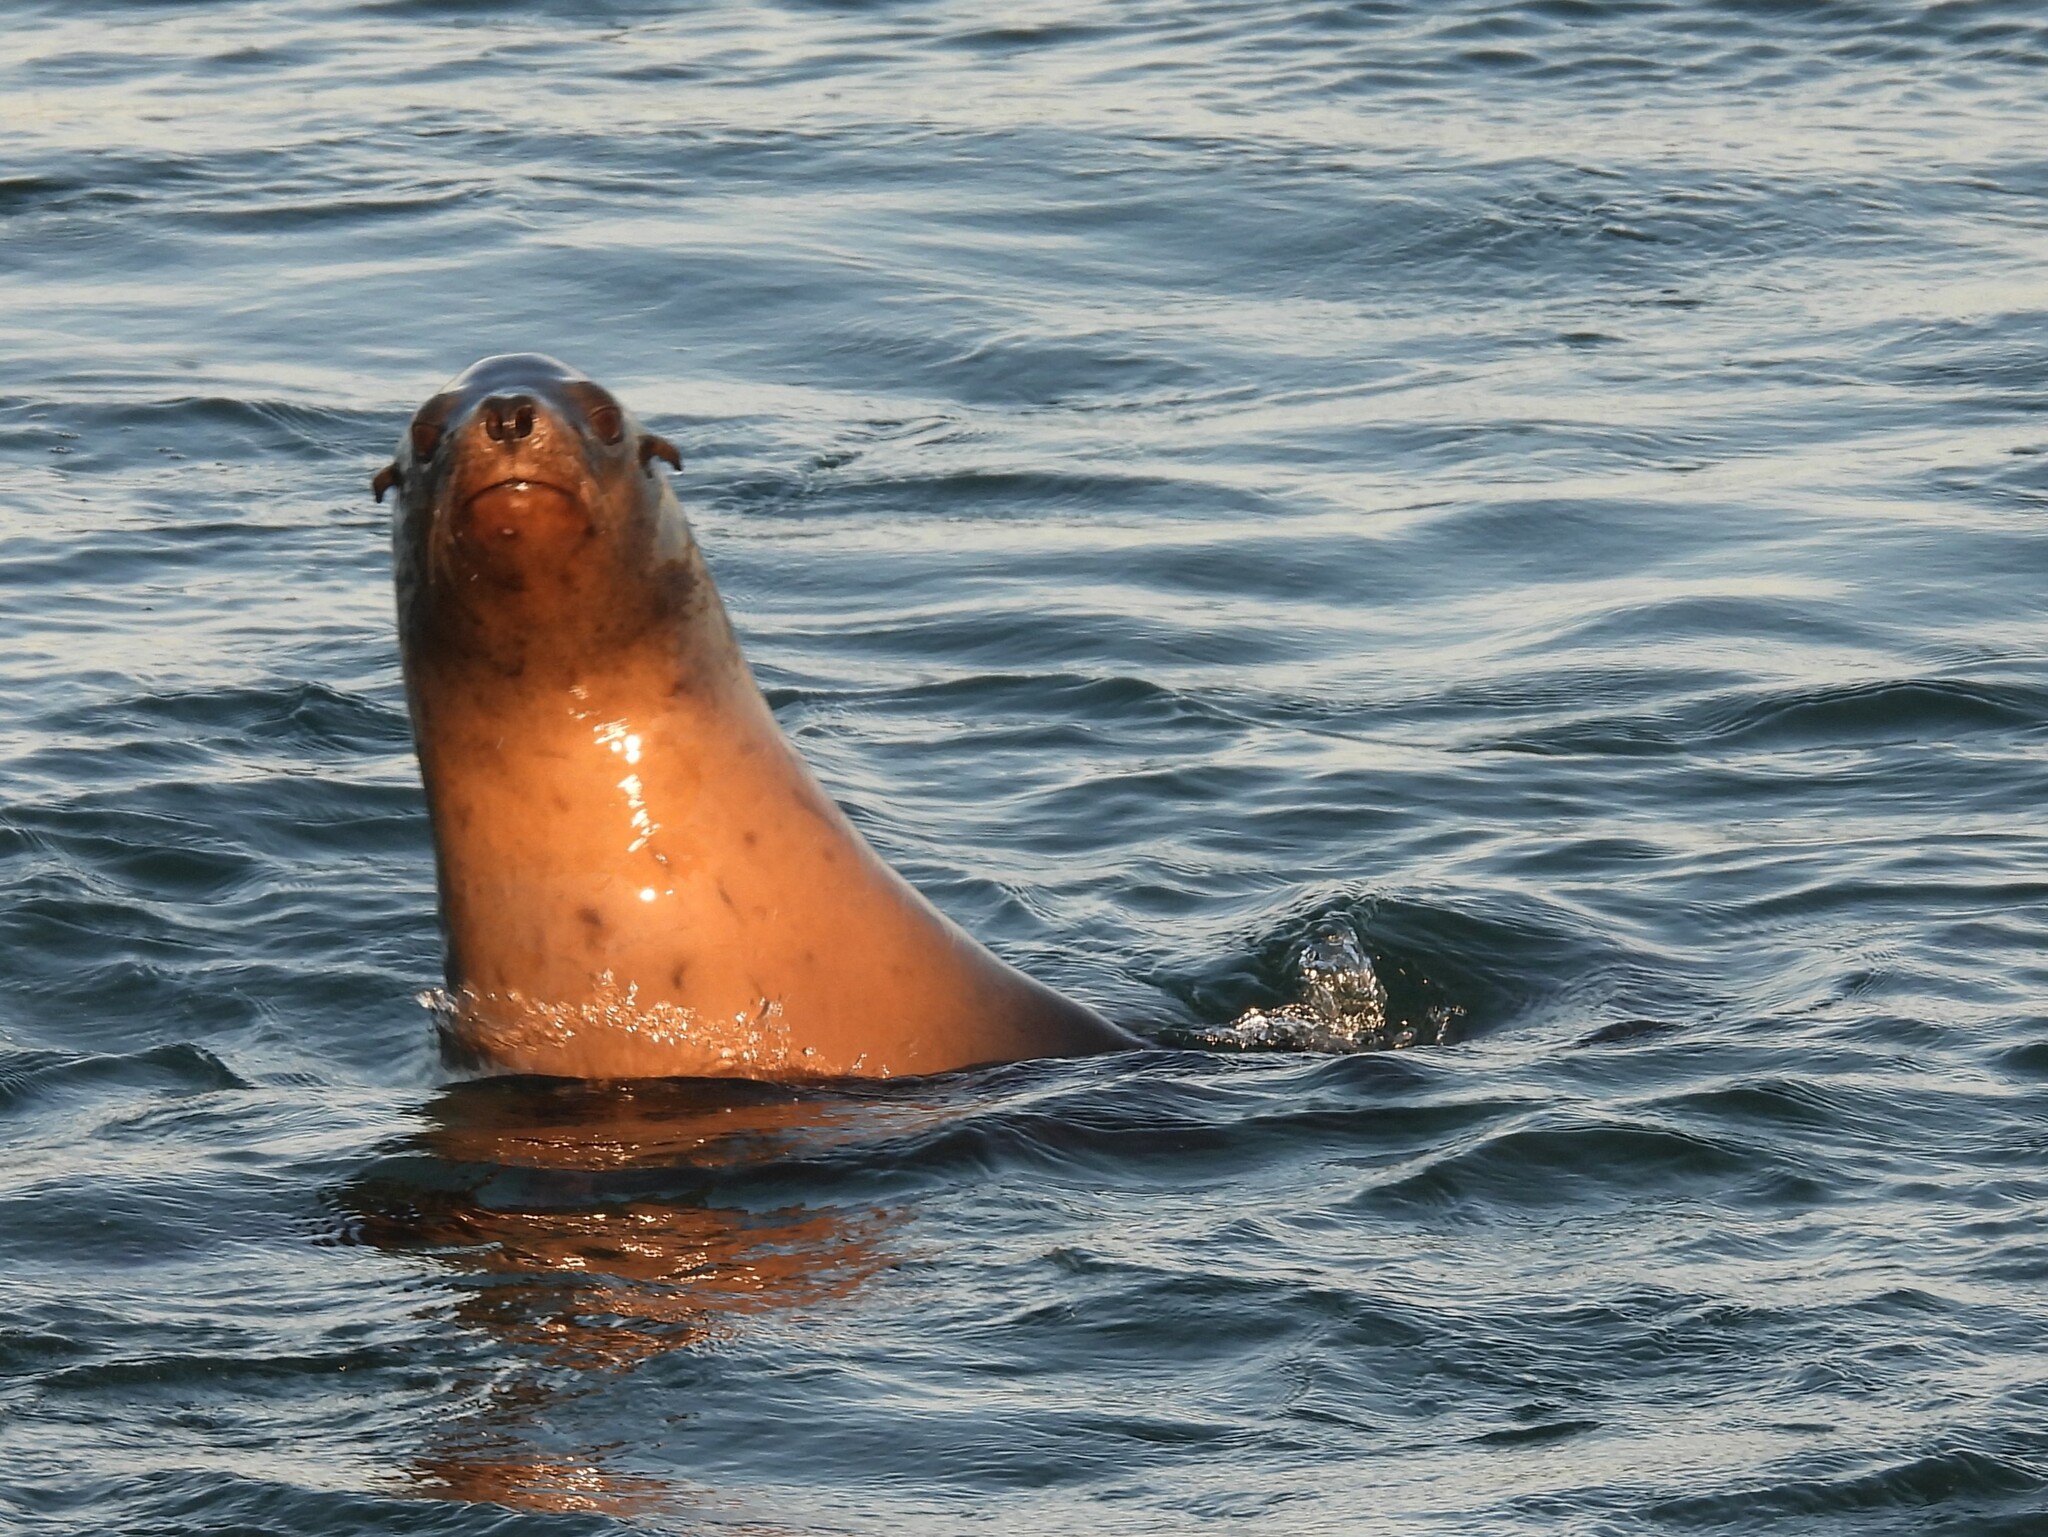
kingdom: Animalia
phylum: Chordata
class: Mammalia
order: Carnivora
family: Otariidae
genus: Zalophus
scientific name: Zalophus californianus
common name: California sea lion
